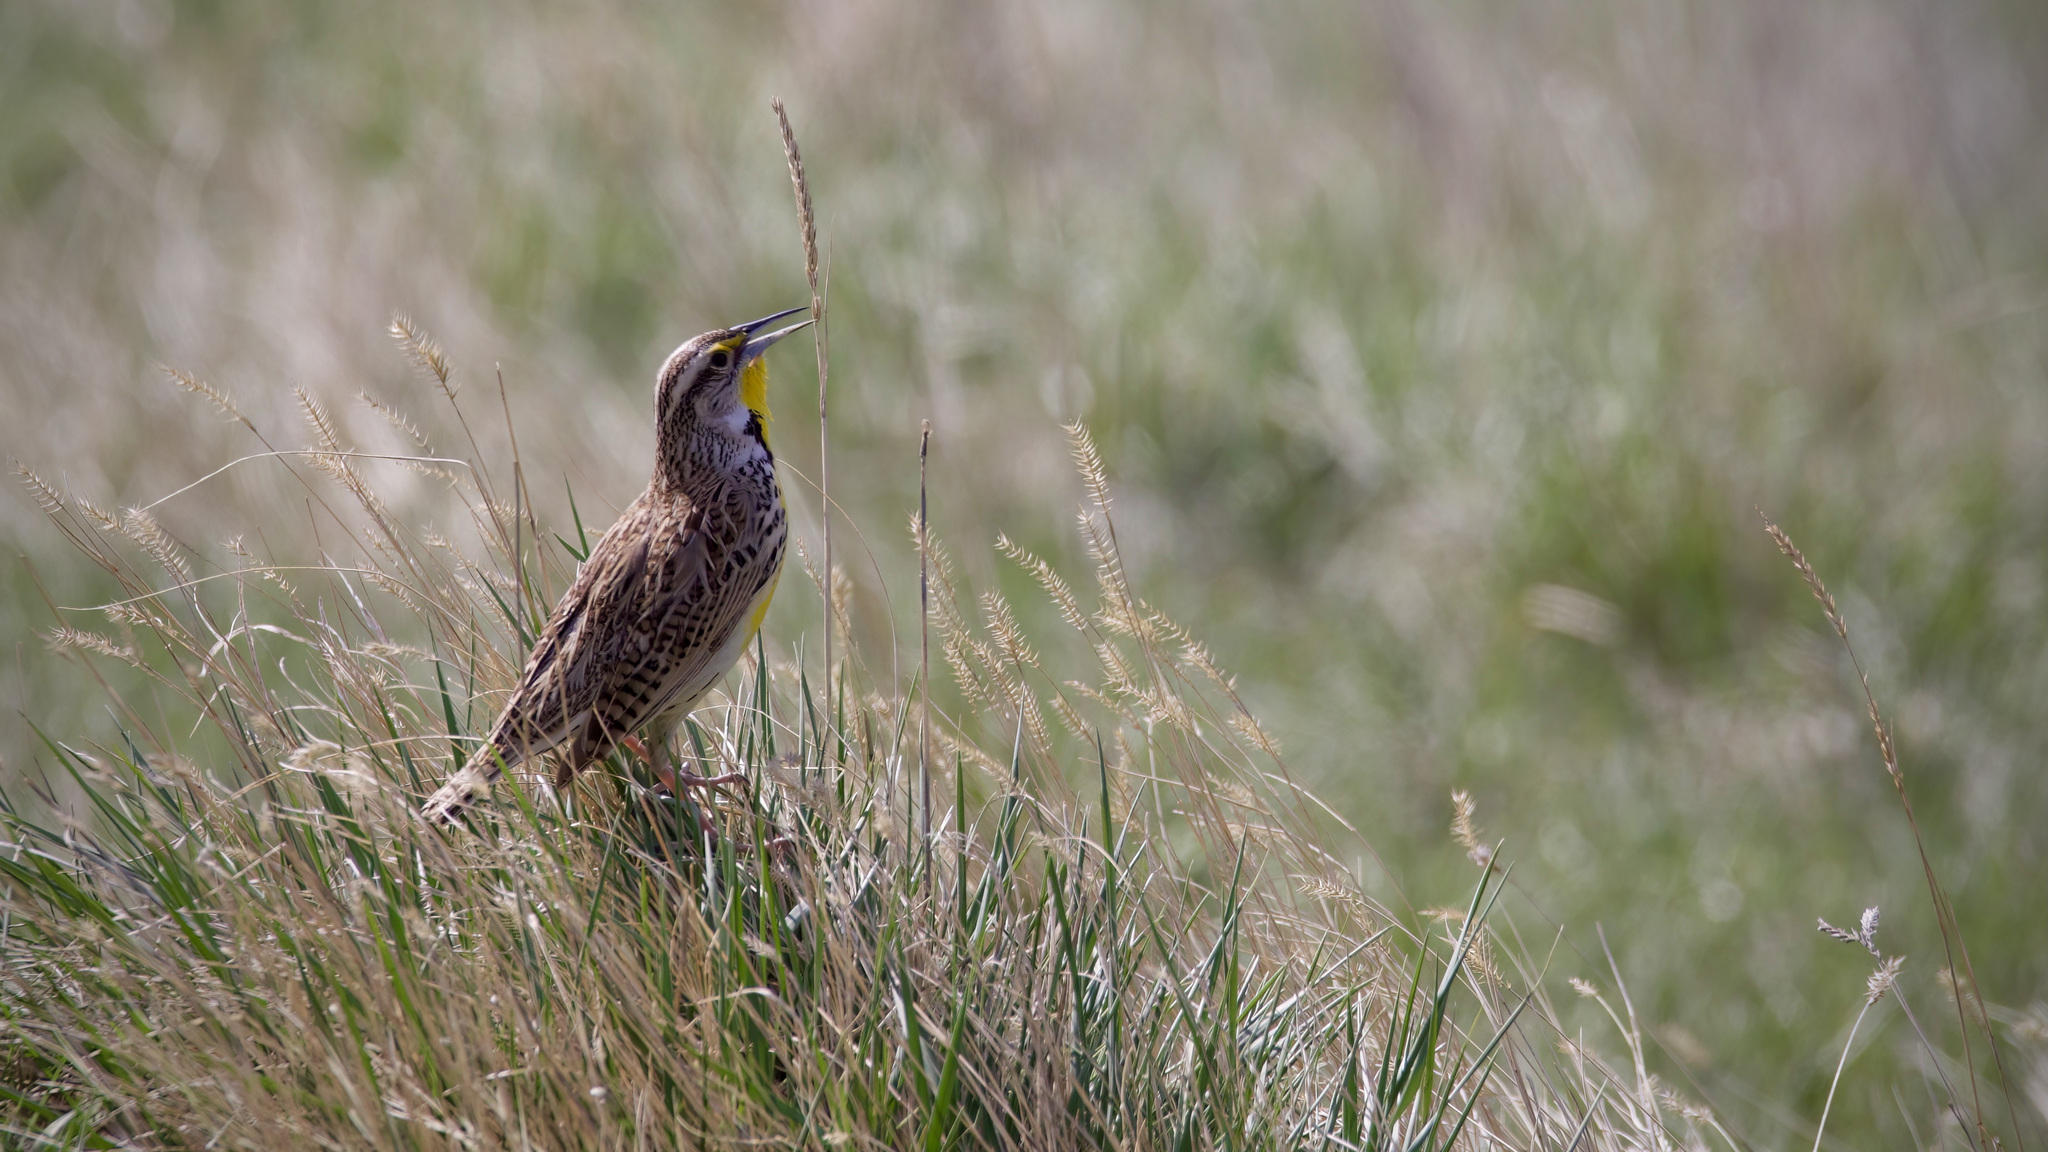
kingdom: Animalia
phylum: Chordata
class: Aves
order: Passeriformes
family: Icteridae
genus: Sturnella
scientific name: Sturnella neglecta
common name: Western meadowlark
